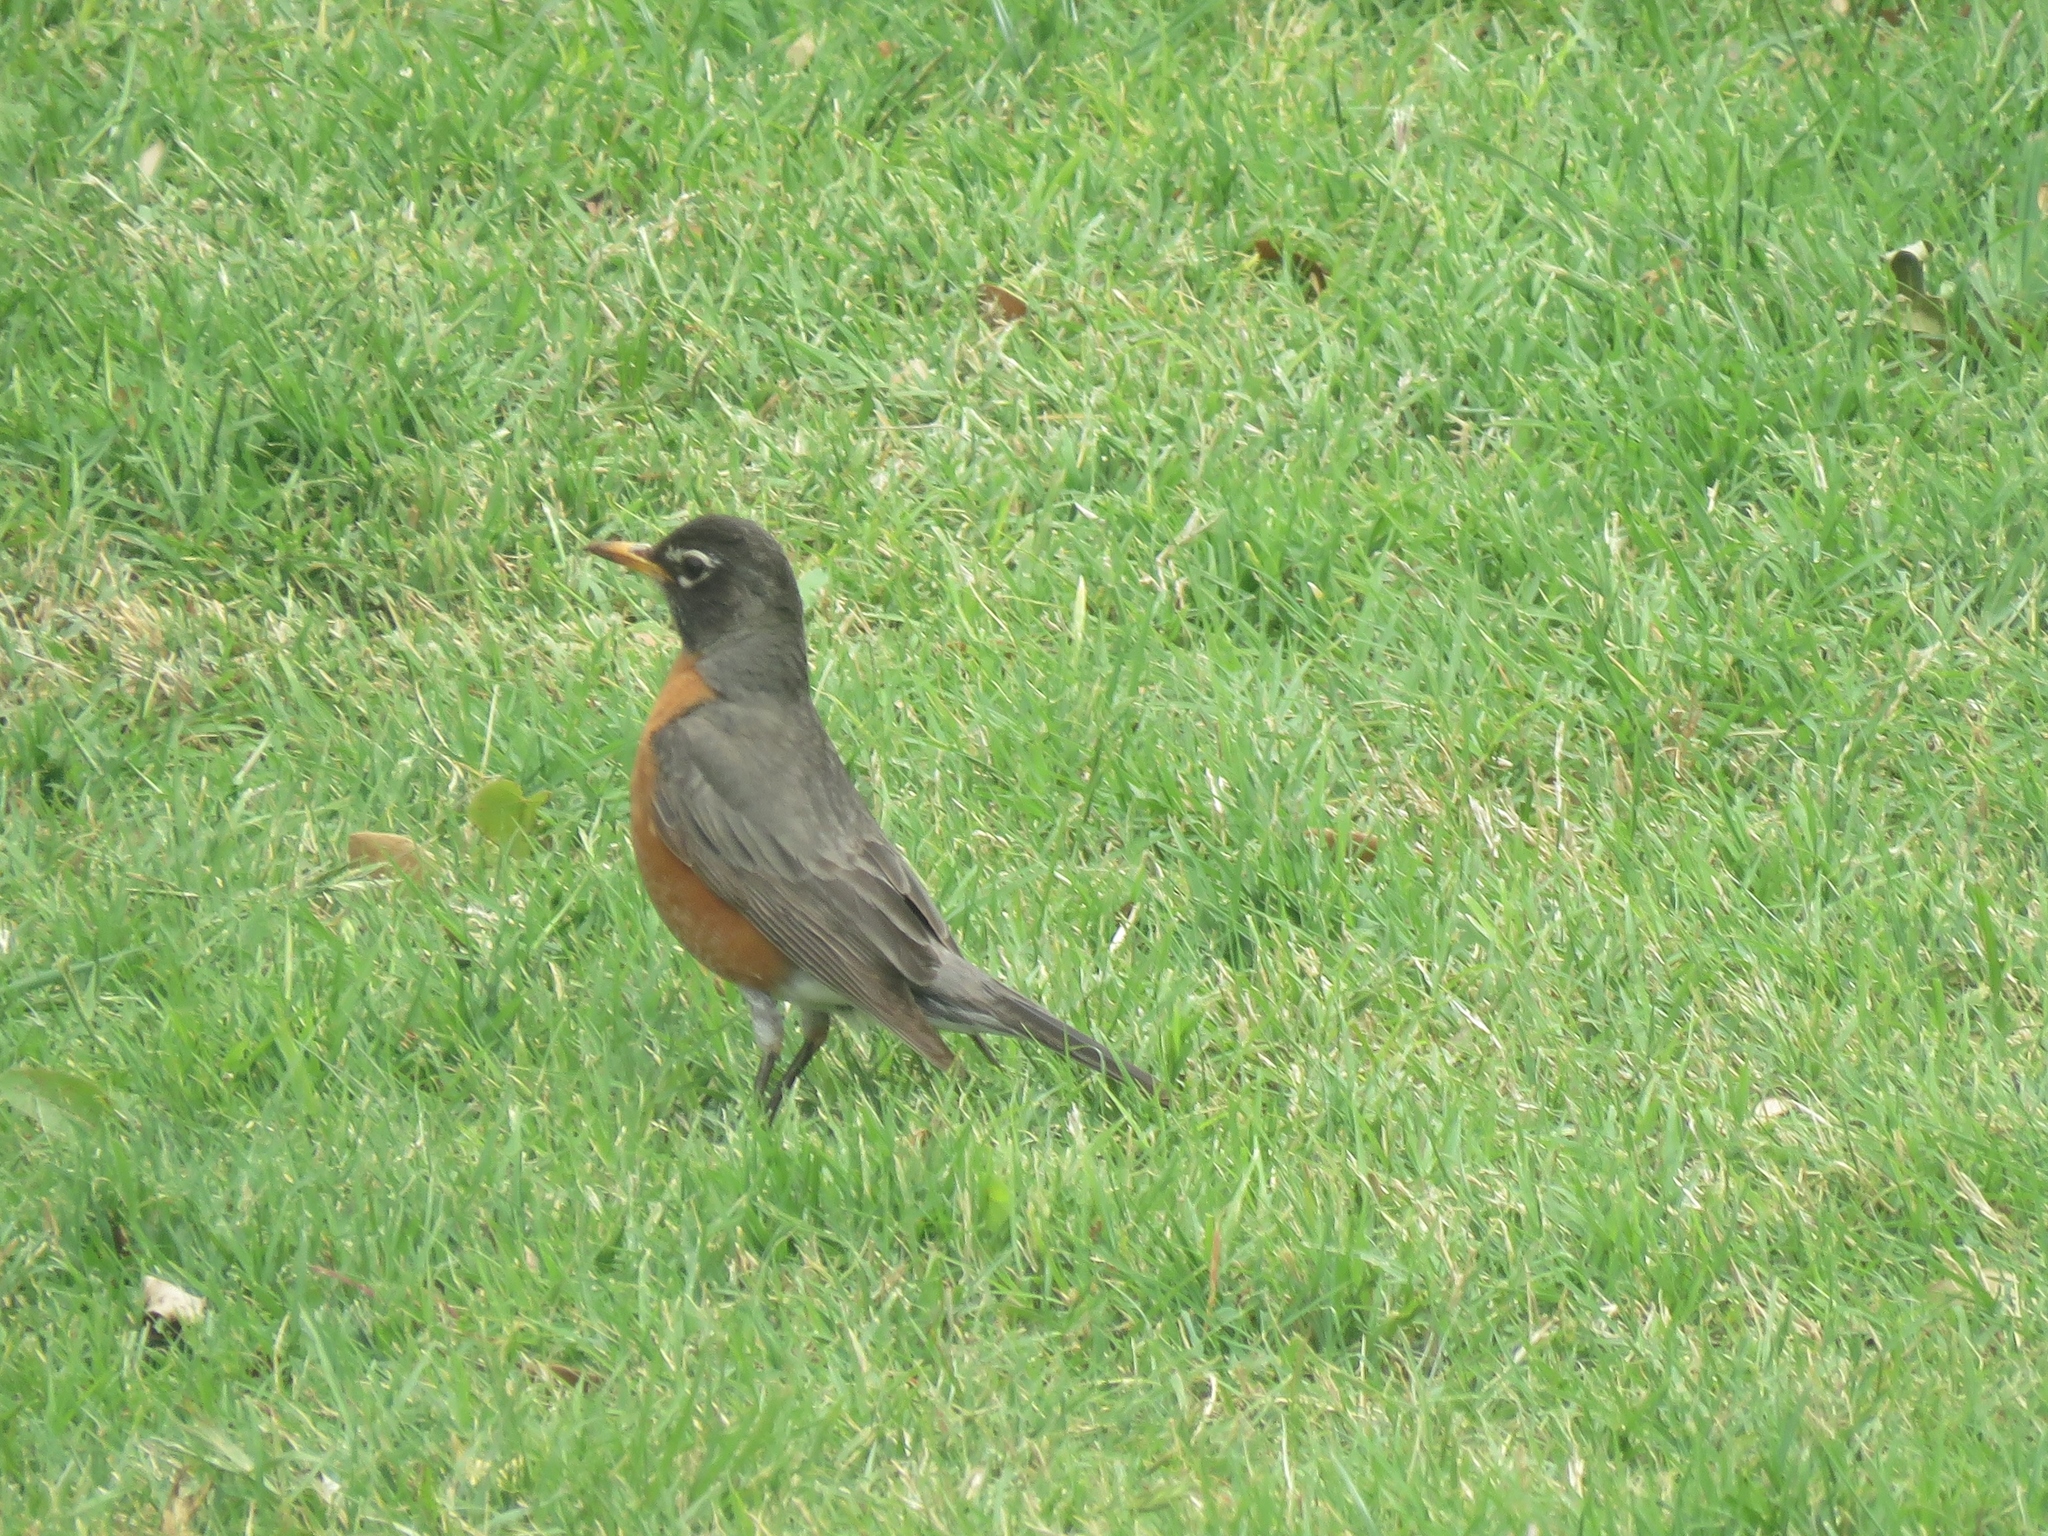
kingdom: Animalia
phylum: Chordata
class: Aves
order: Passeriformes
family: Turdidae
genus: Turdus
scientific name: Turdus migratorius
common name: American robin
